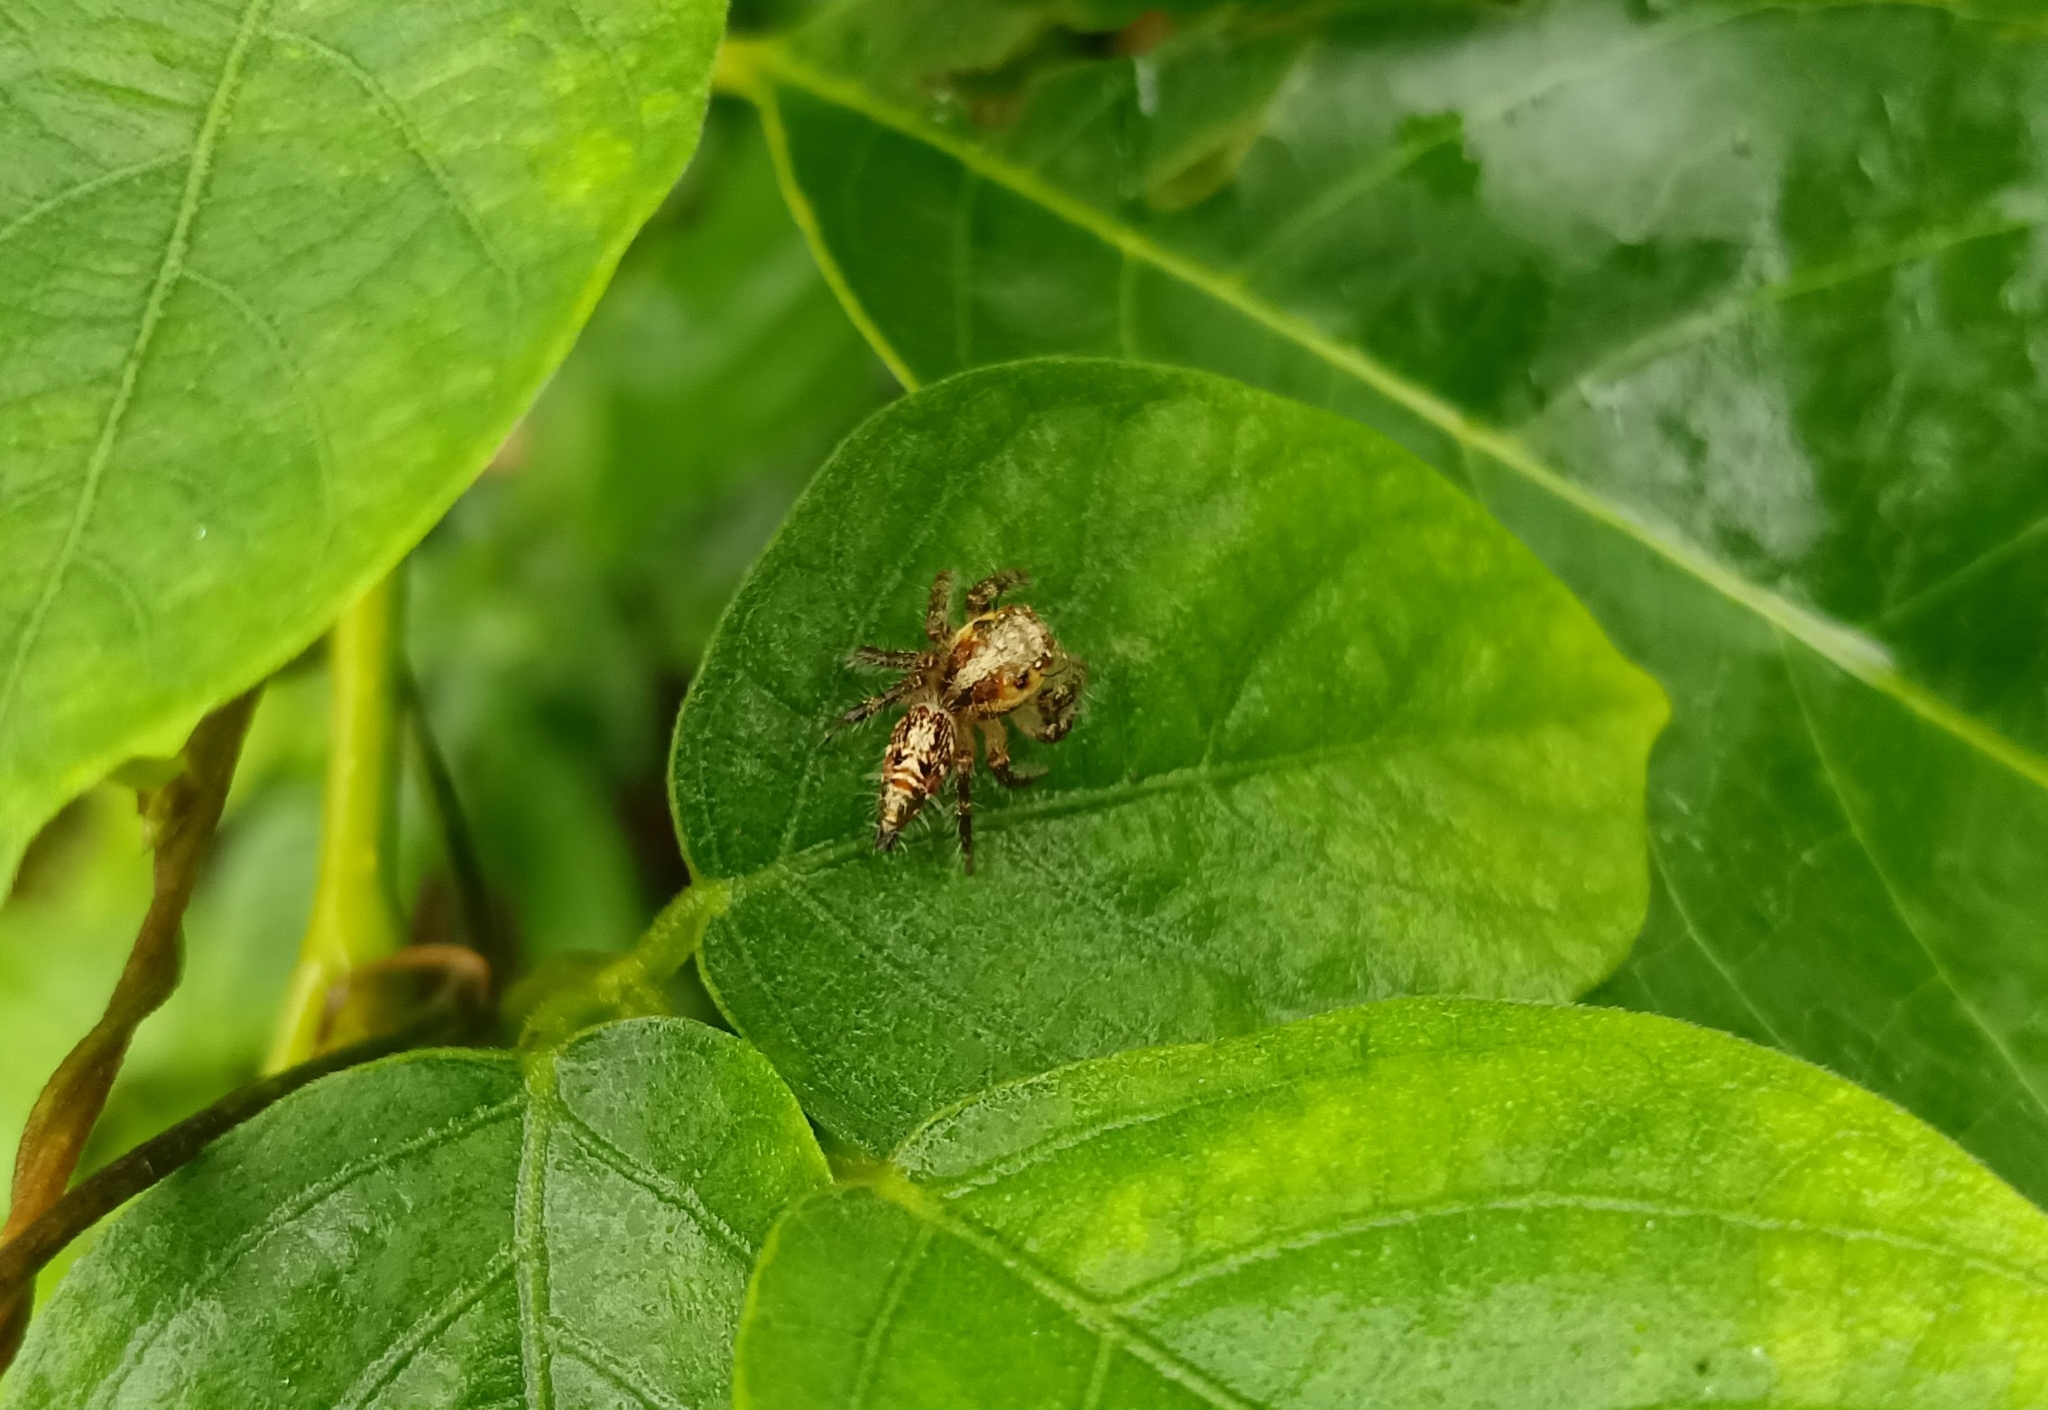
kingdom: Animalia
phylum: Arthropoda
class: Arachnida
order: Araneae
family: Salticidae
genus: Hyllus
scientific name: Hyllus semicupreus
